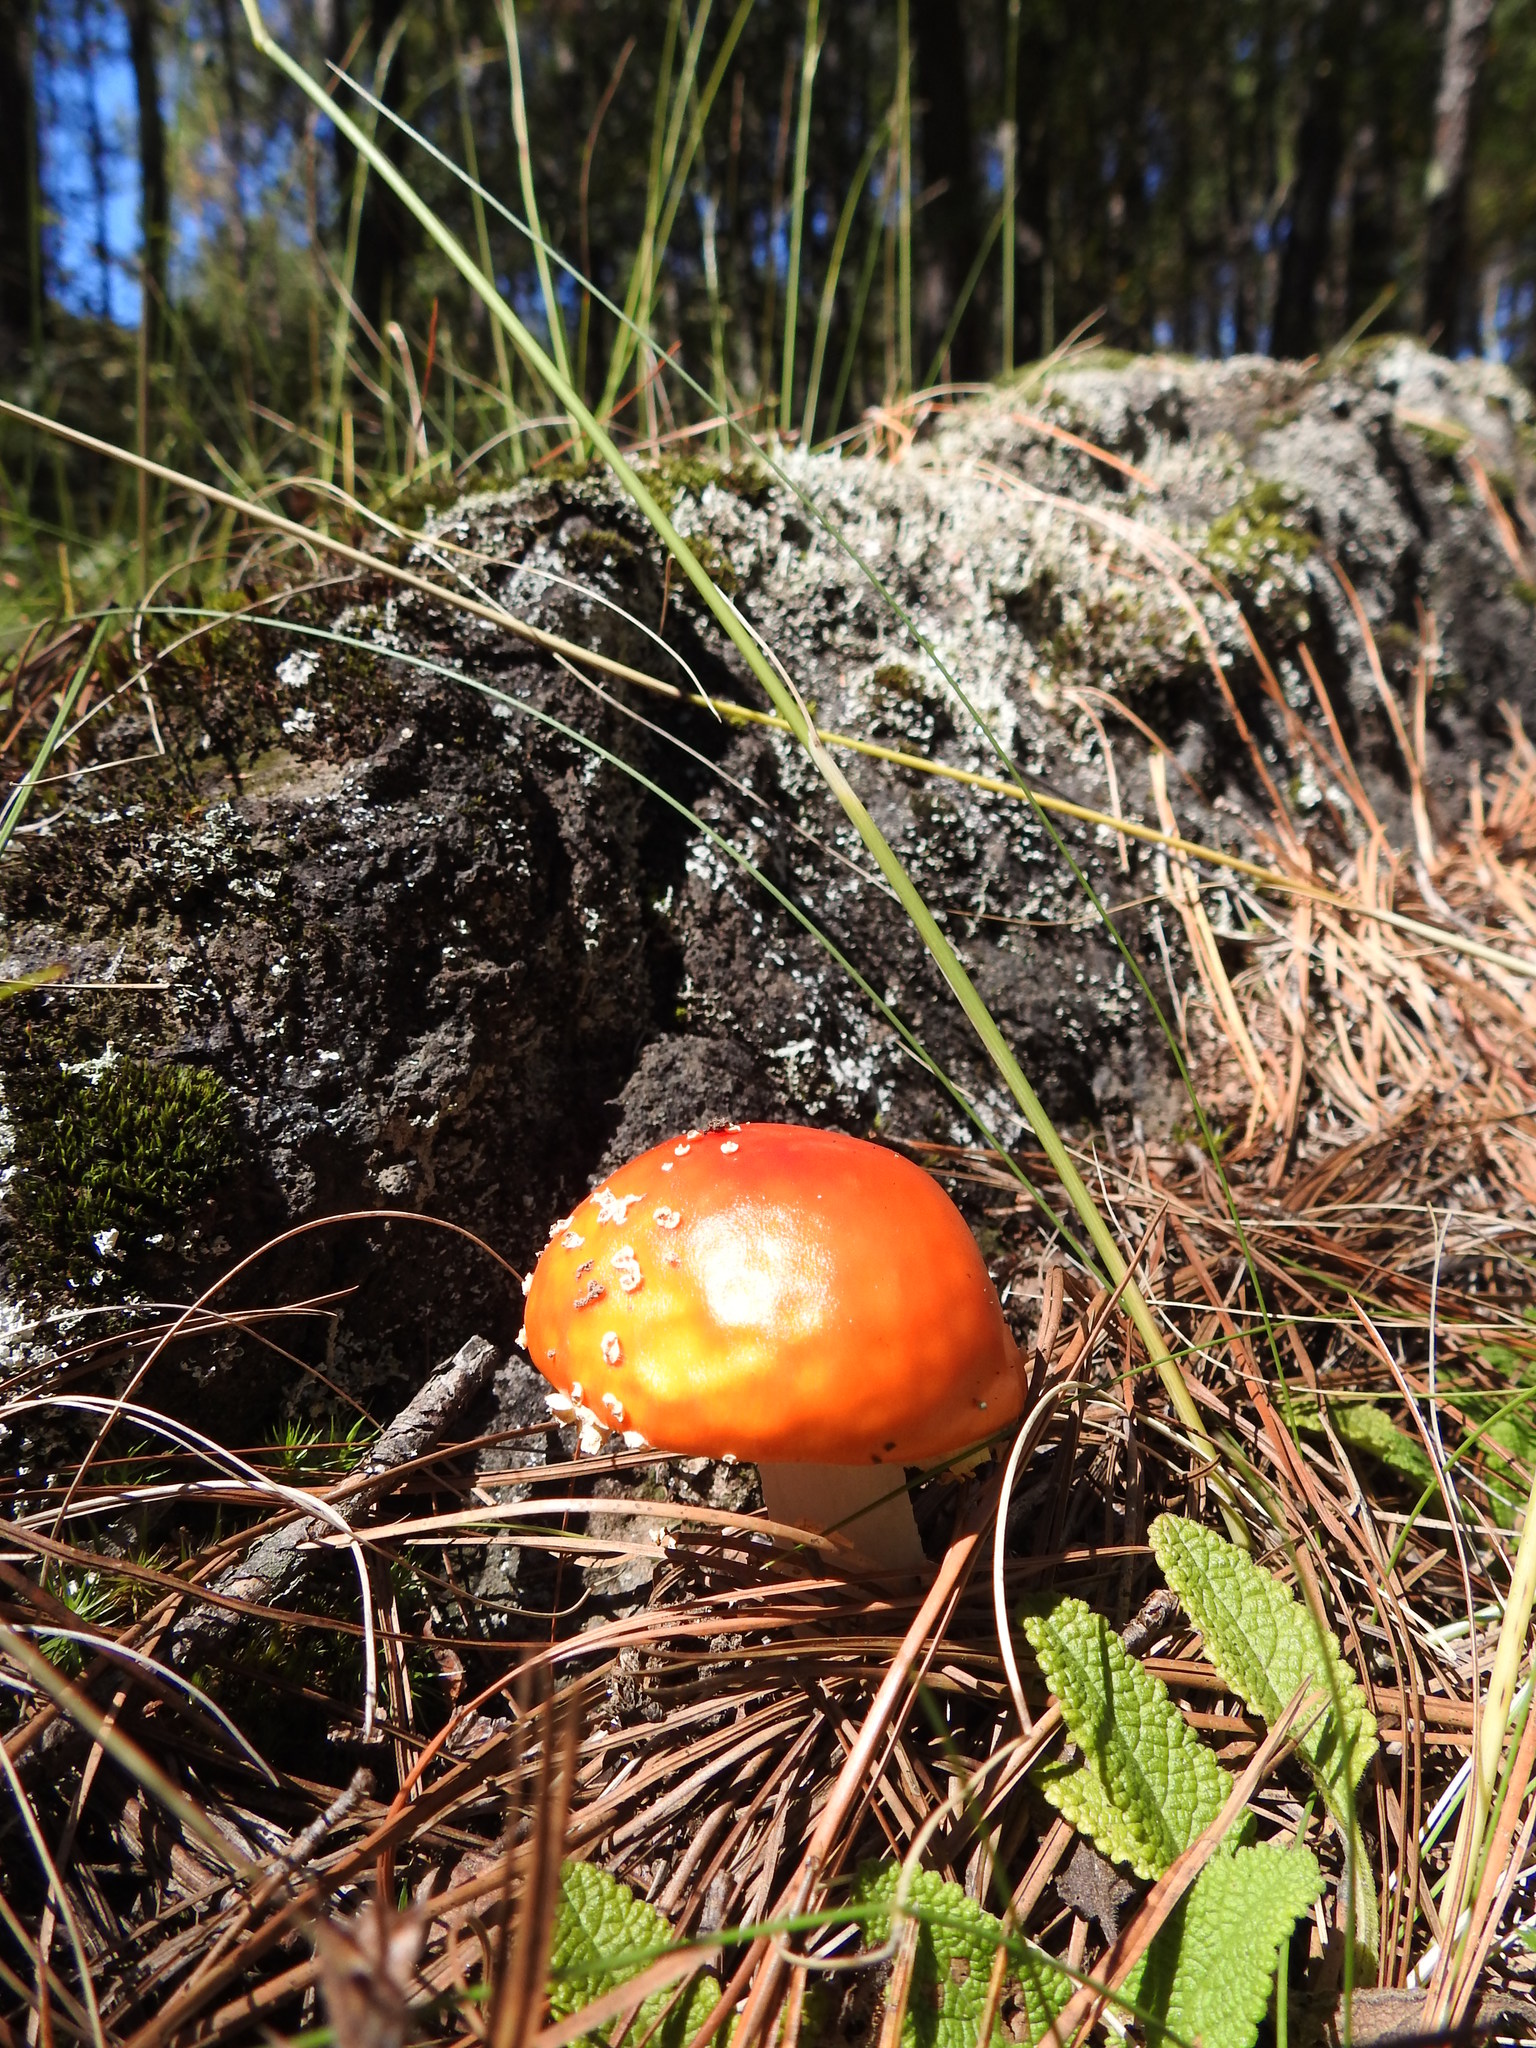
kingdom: Fungi
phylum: Basidiomycota
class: Agaricomycetes
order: Agaricales
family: Amanitaceae
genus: Amanita
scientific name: Amanita muscaria
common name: Fly agaric
